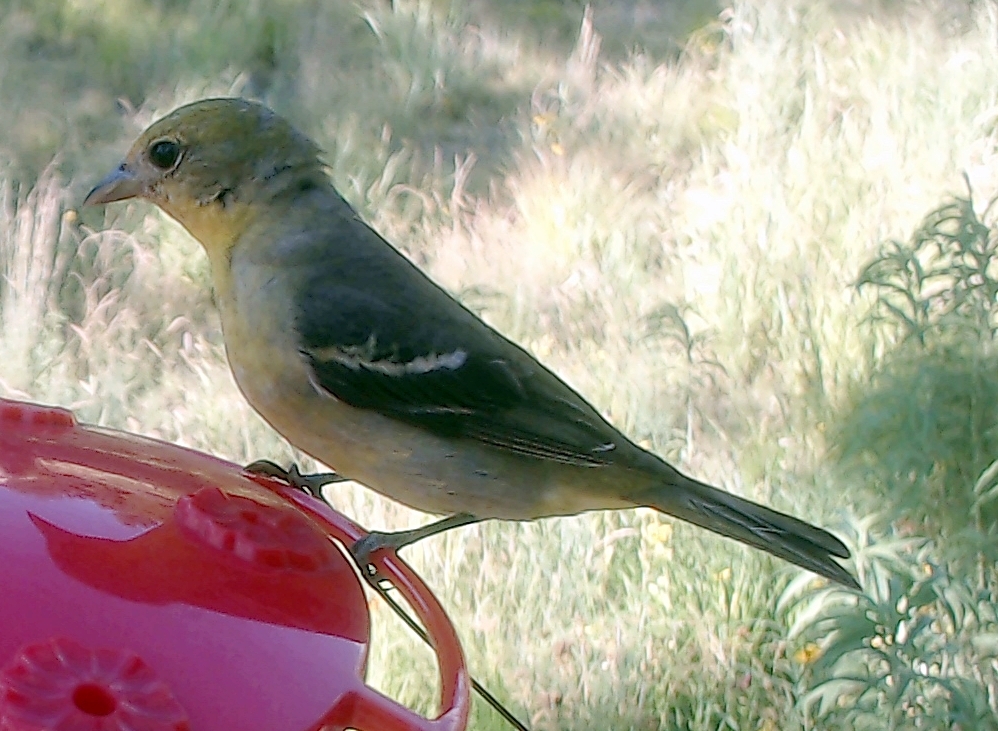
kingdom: Animalia
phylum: Chordata
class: Aves
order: Passeriformes
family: Cardinalidae
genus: Piranga
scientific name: Piranga ludoviciana
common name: Western tanager
